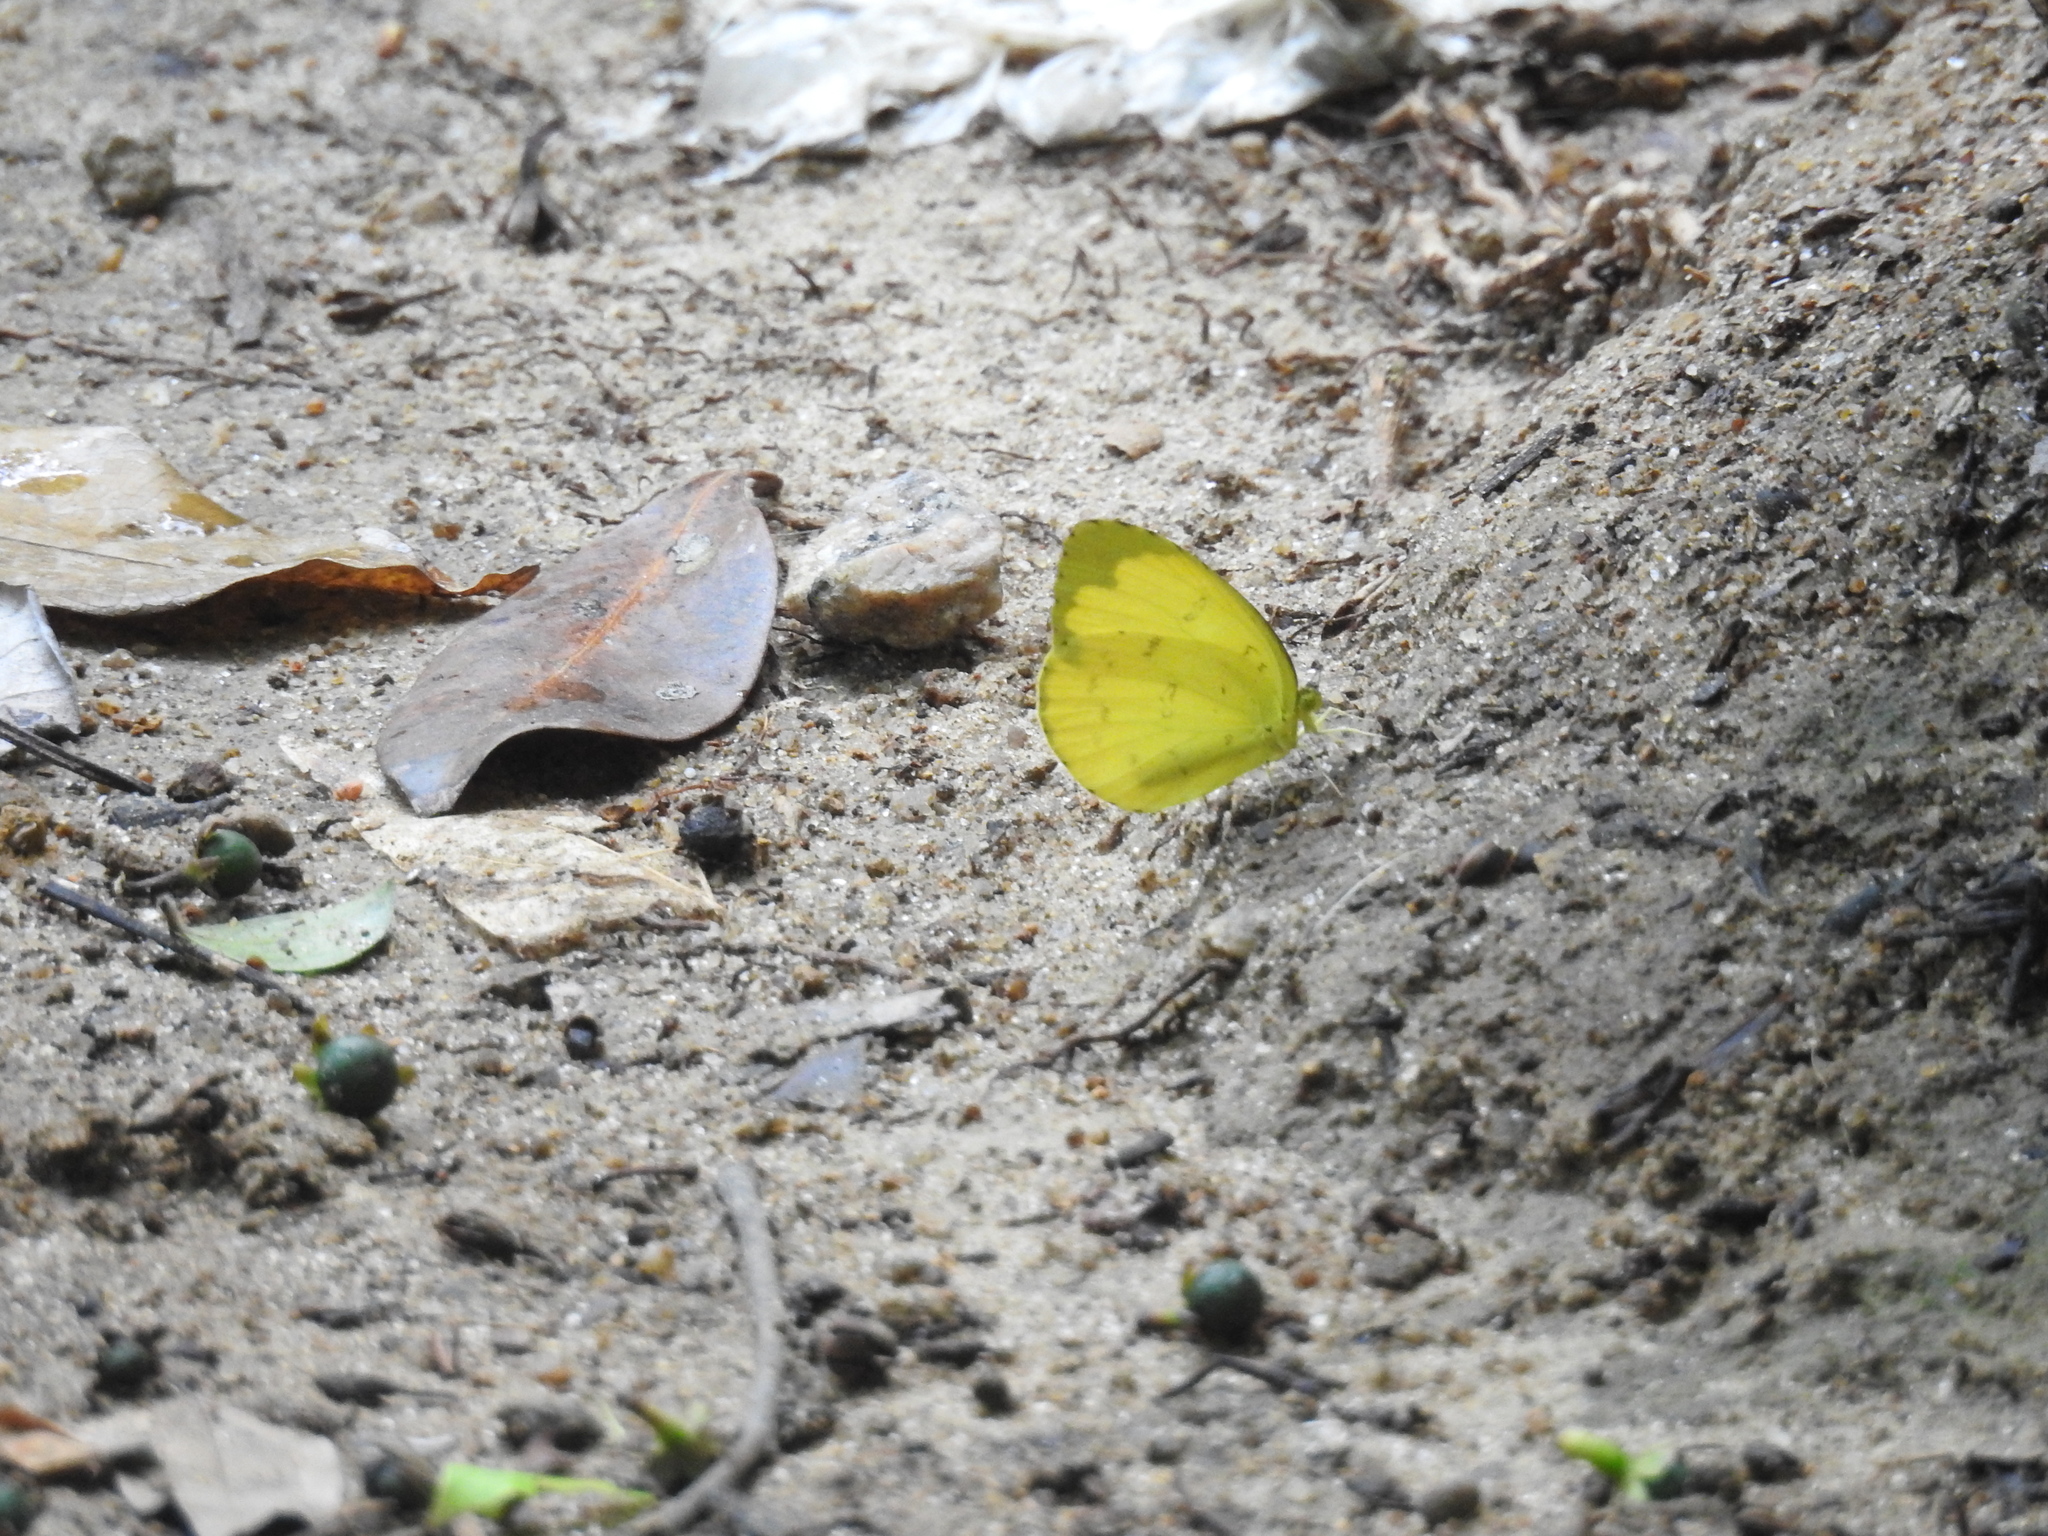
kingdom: Animalia
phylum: Arthropoda
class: Insecta
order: Lepidoptera
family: Pieridae
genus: Eurema
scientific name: Eurema blanda
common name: Three-spot grass yellow
